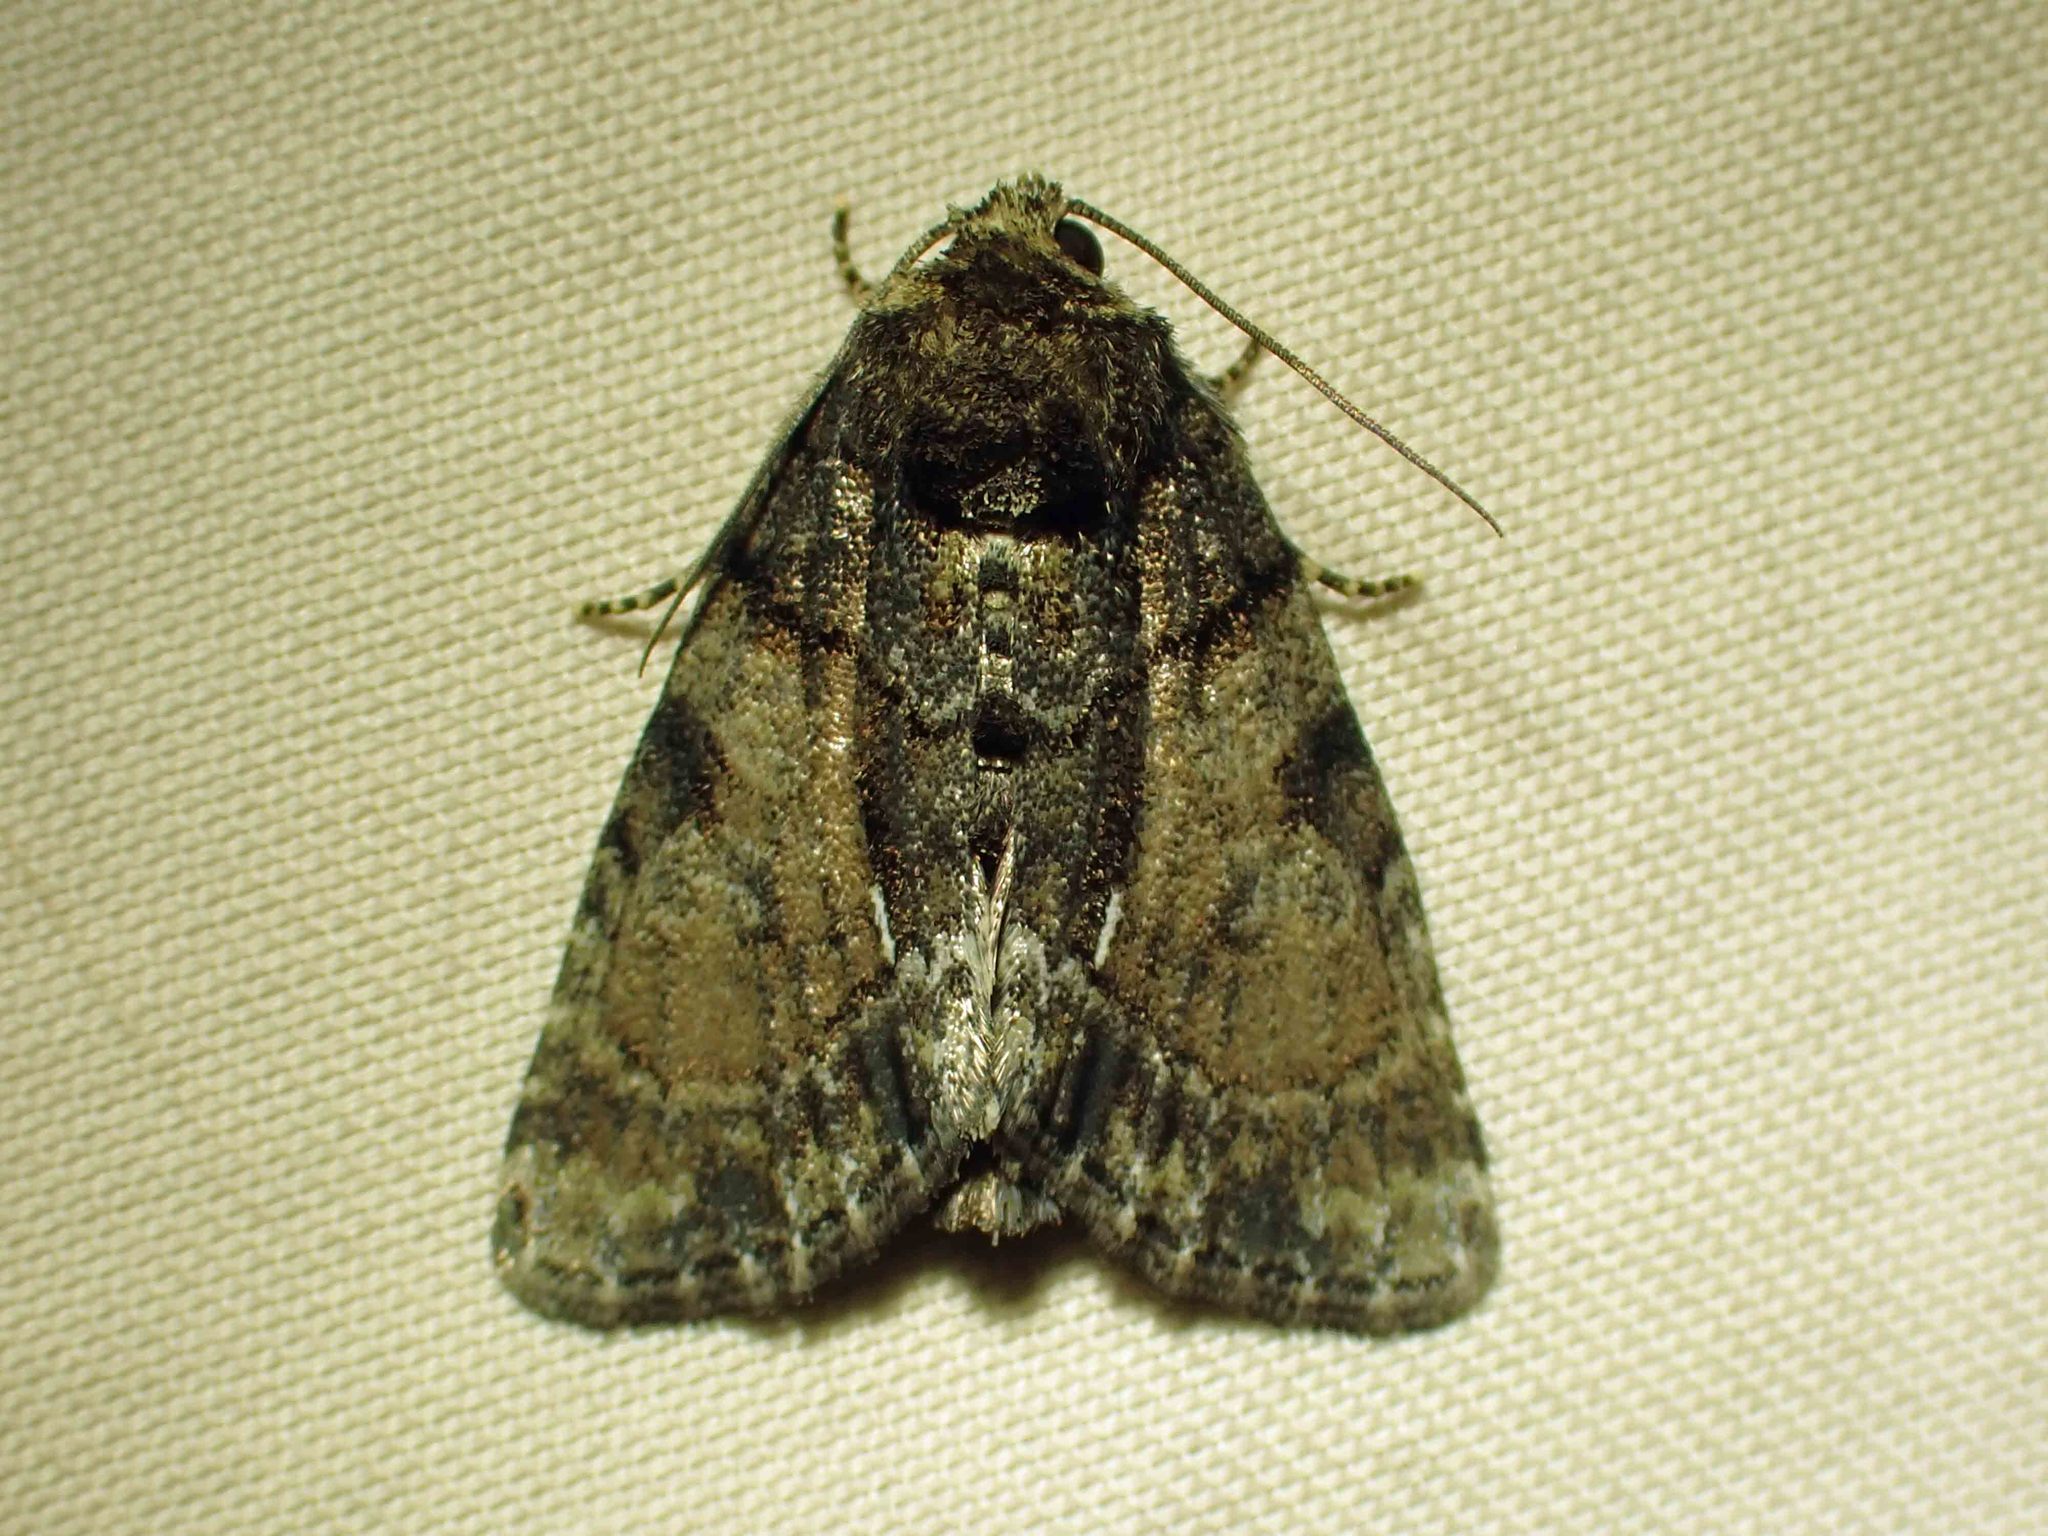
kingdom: Animalia
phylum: Arthropoda
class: Insecta
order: Lepidoptera
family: Noctuidae
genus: Chytonix
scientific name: Chytonix palliatricula
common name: Cloaked marvel
